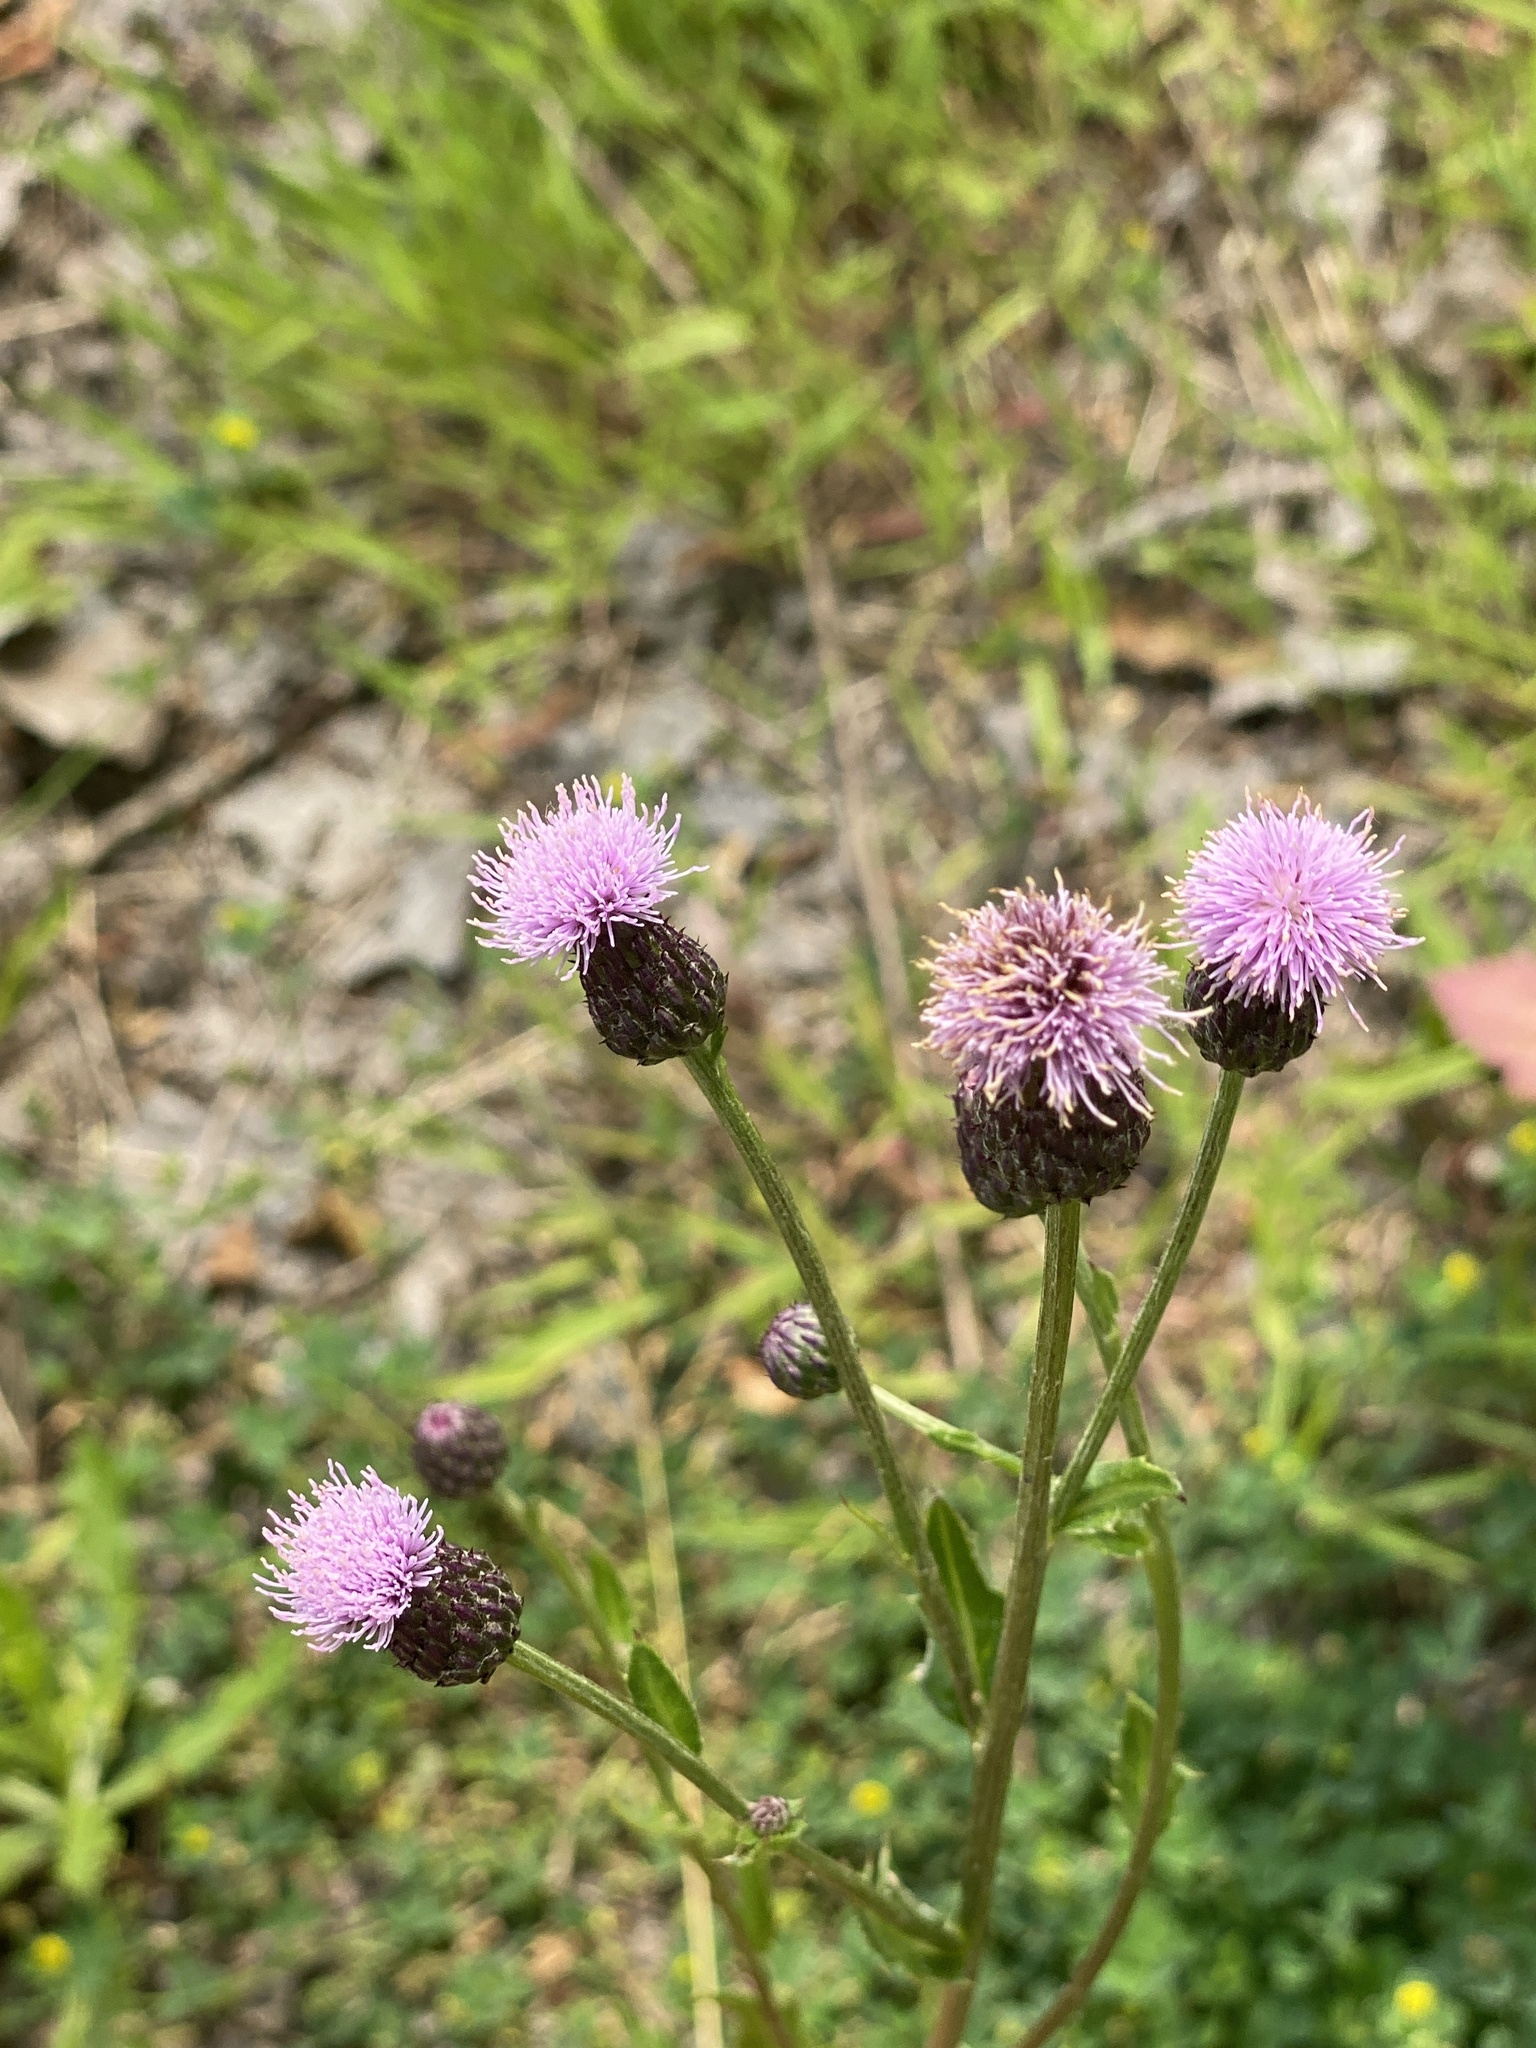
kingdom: Plantae
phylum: Tracheophyta
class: Magnoliopsida
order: Asterales
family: Asteraceae
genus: Cirsium
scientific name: Cirsium arvense
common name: Creeping thistle
